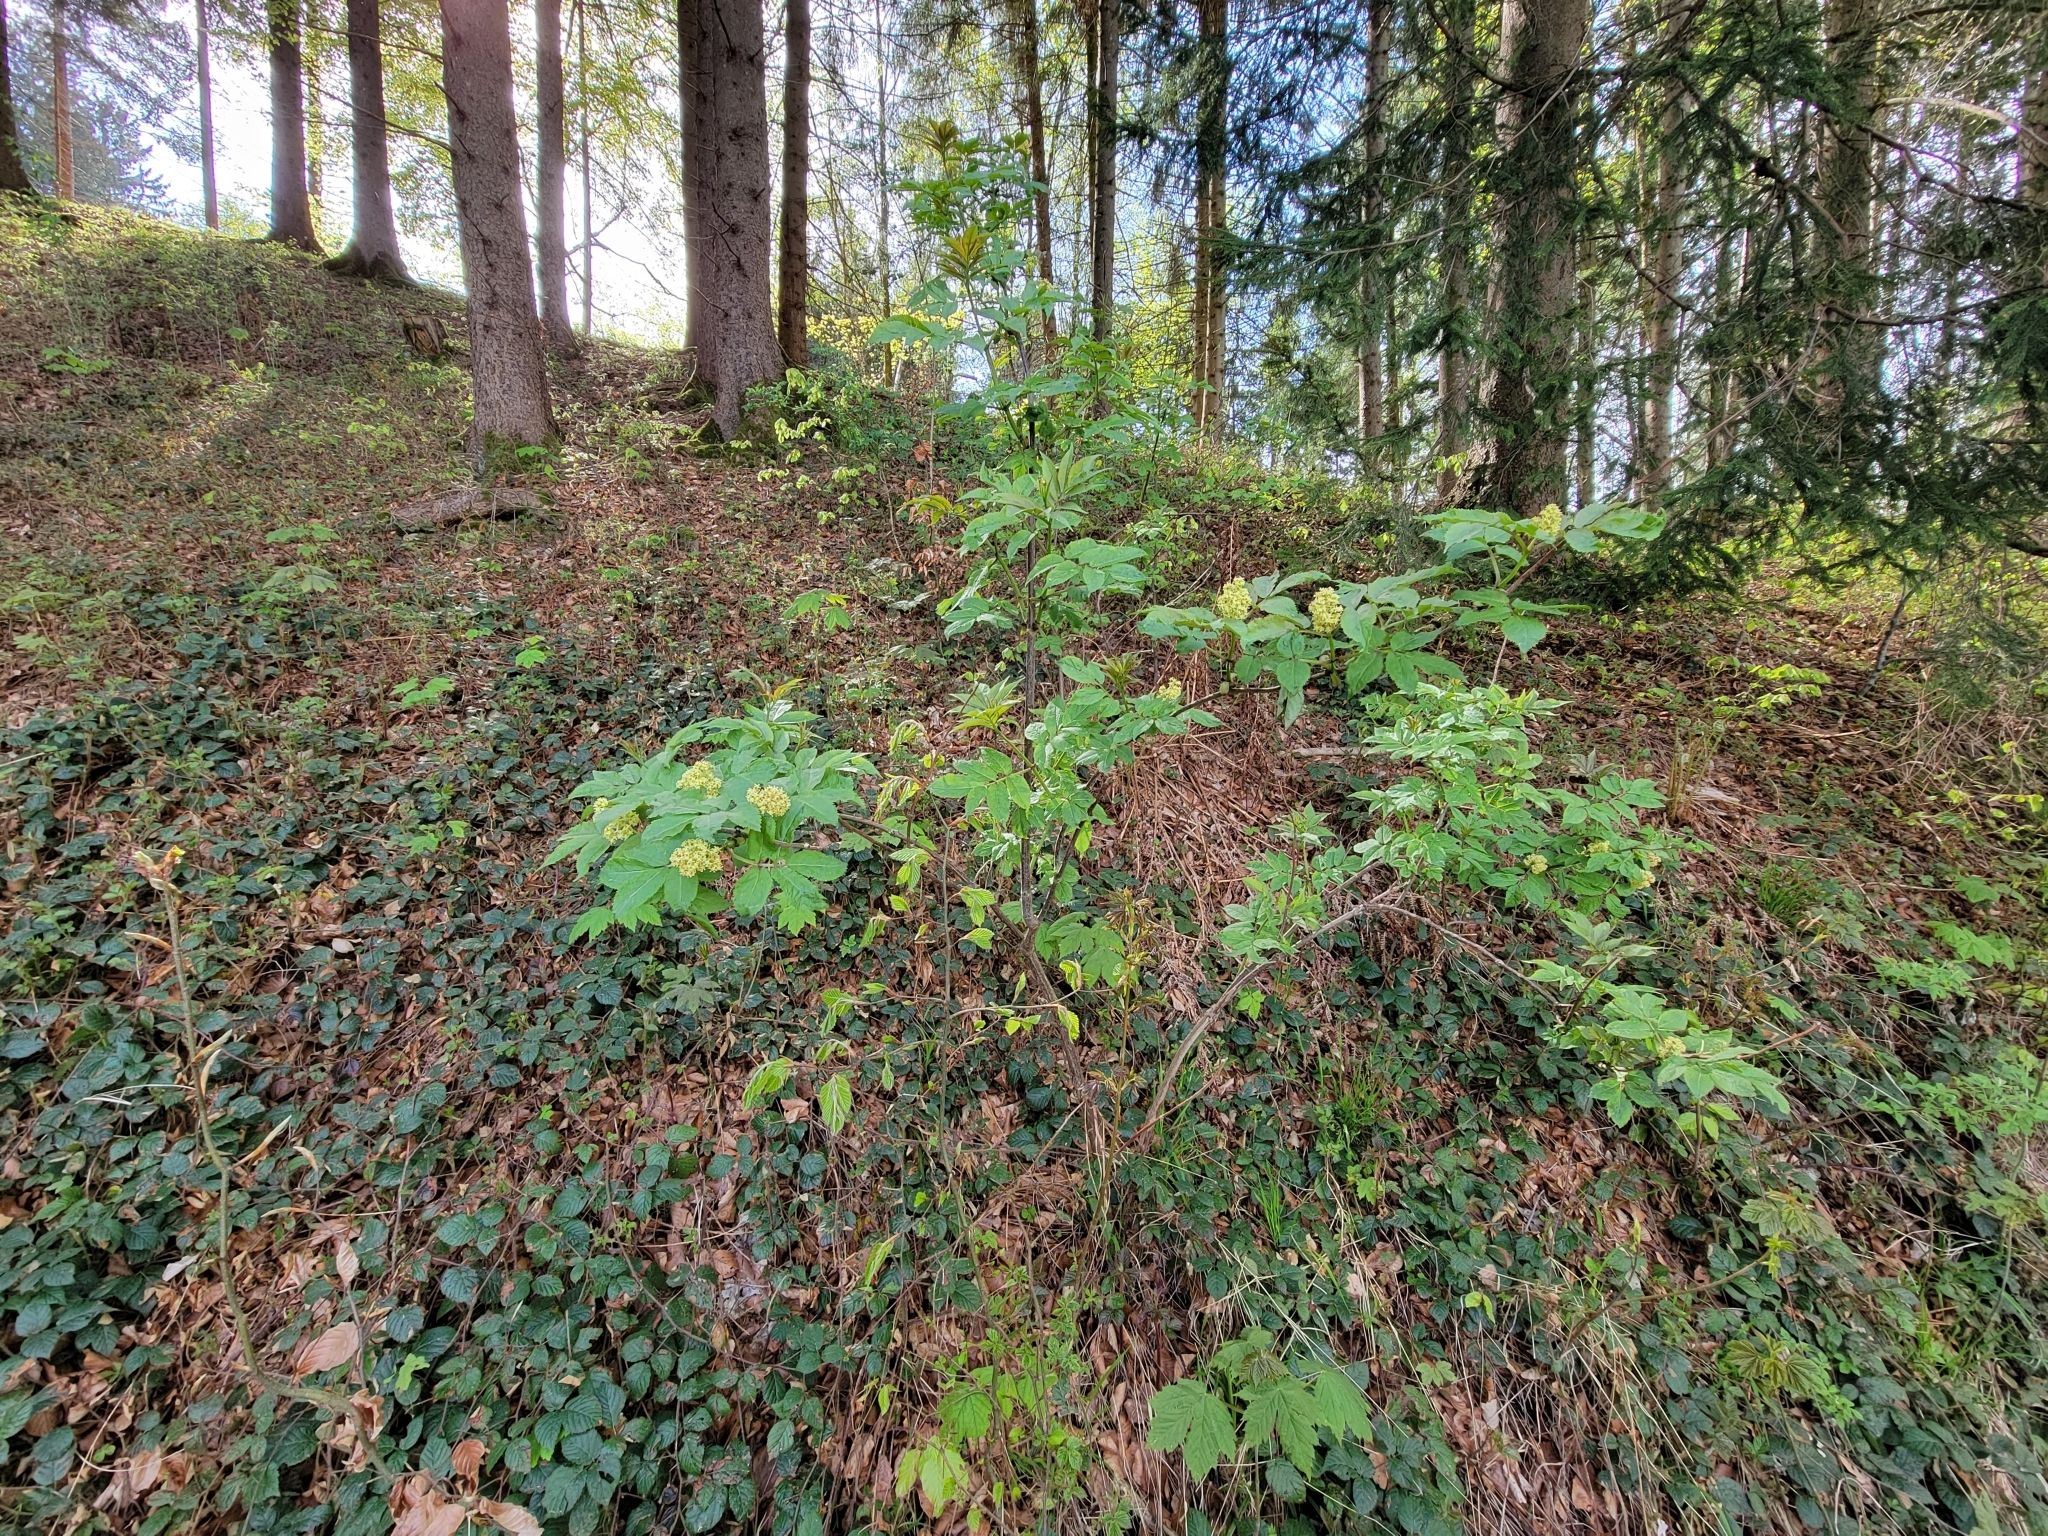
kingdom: Plantae
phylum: Tracheophyta
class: Magnoliopsida
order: Dipsacales
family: Viburnaceae
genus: Sambucus
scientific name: Sambucus racemosa
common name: Red-berried elder
